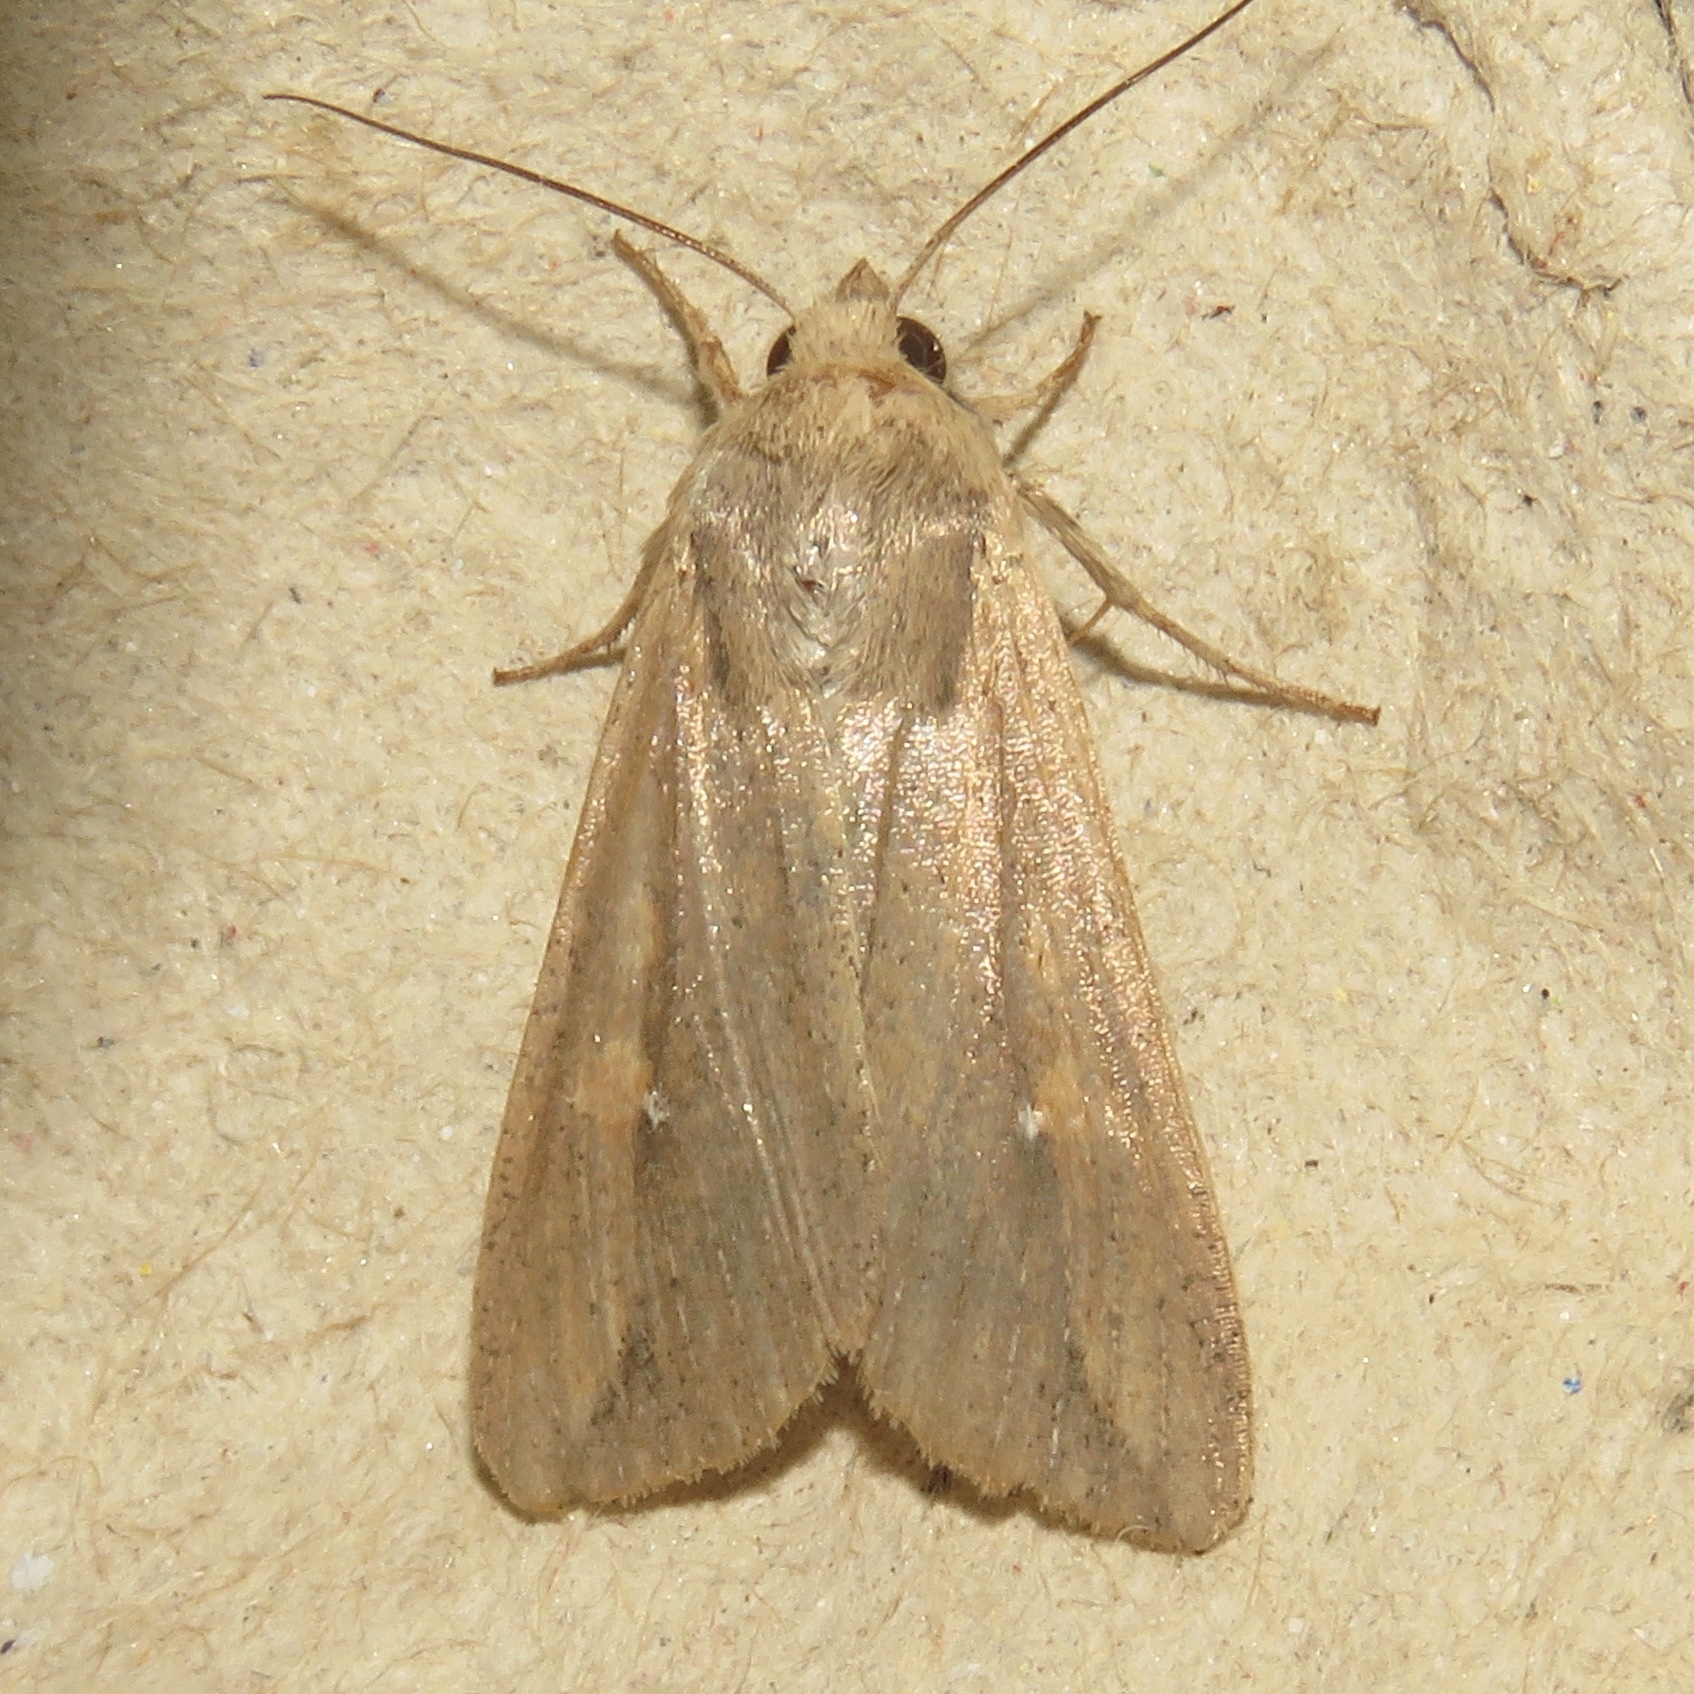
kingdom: Animalia
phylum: Arthropoda
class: Insecta
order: Lepidoptera
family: Noctuidae
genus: Mythimna
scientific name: Mythimna unipuncta
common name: White-speck
